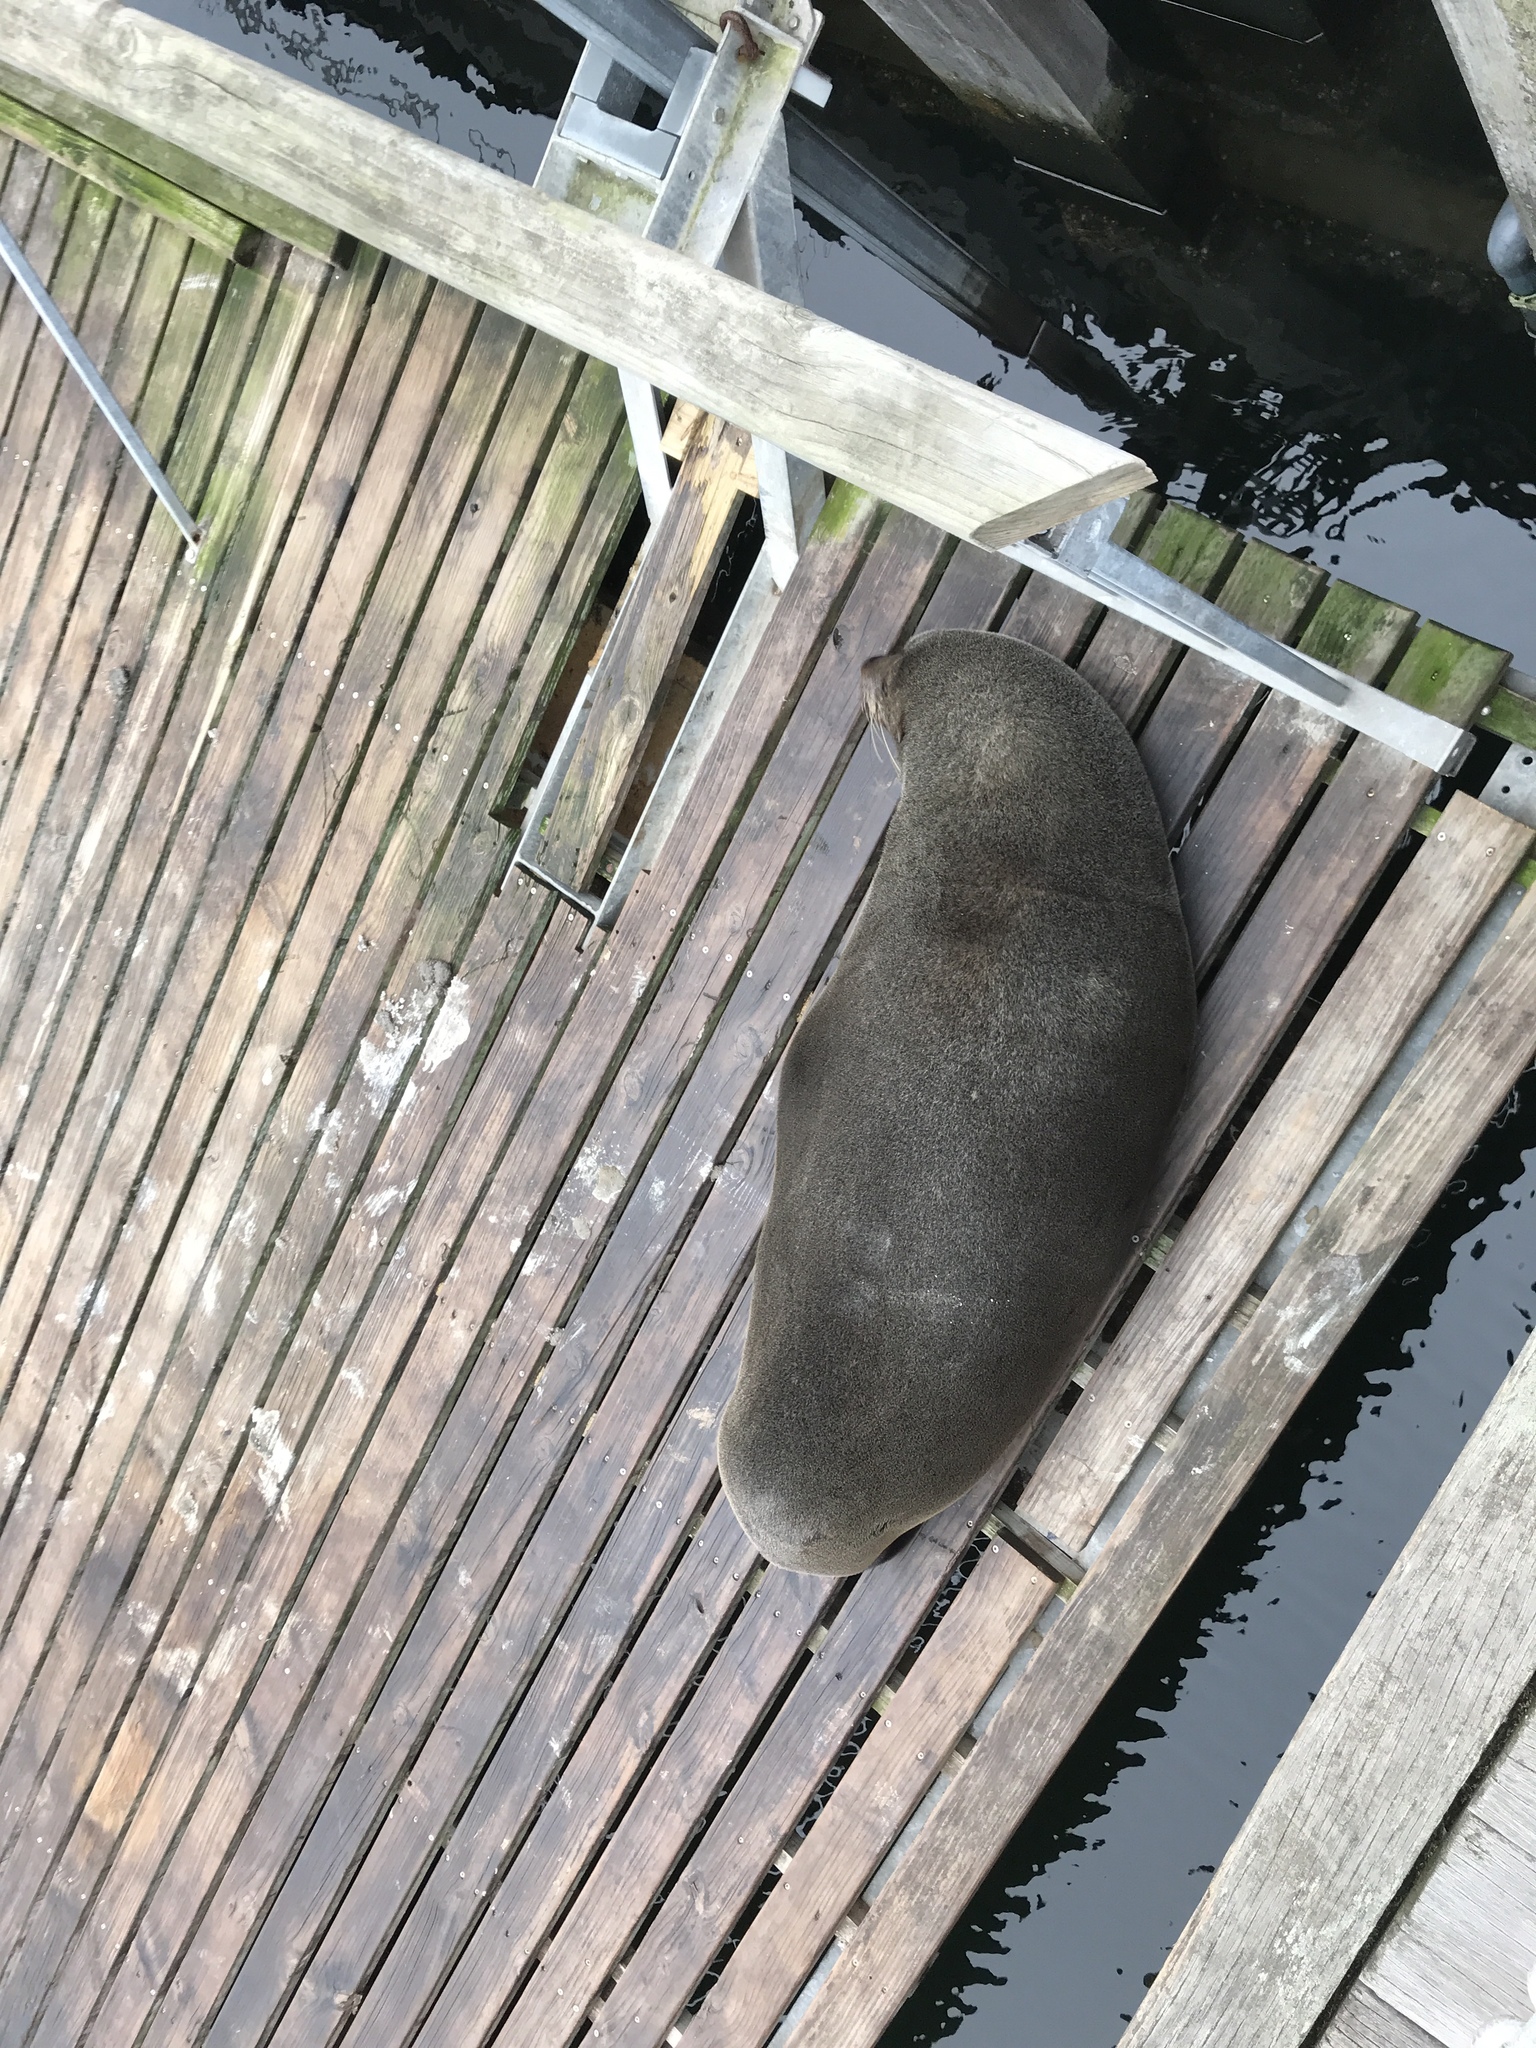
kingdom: Animalia
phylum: Chordata
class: Mammalia
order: Carnivora
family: Otariidae
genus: Arctocephalus
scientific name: Arctocephalus pusillus
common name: Brown fur seal
